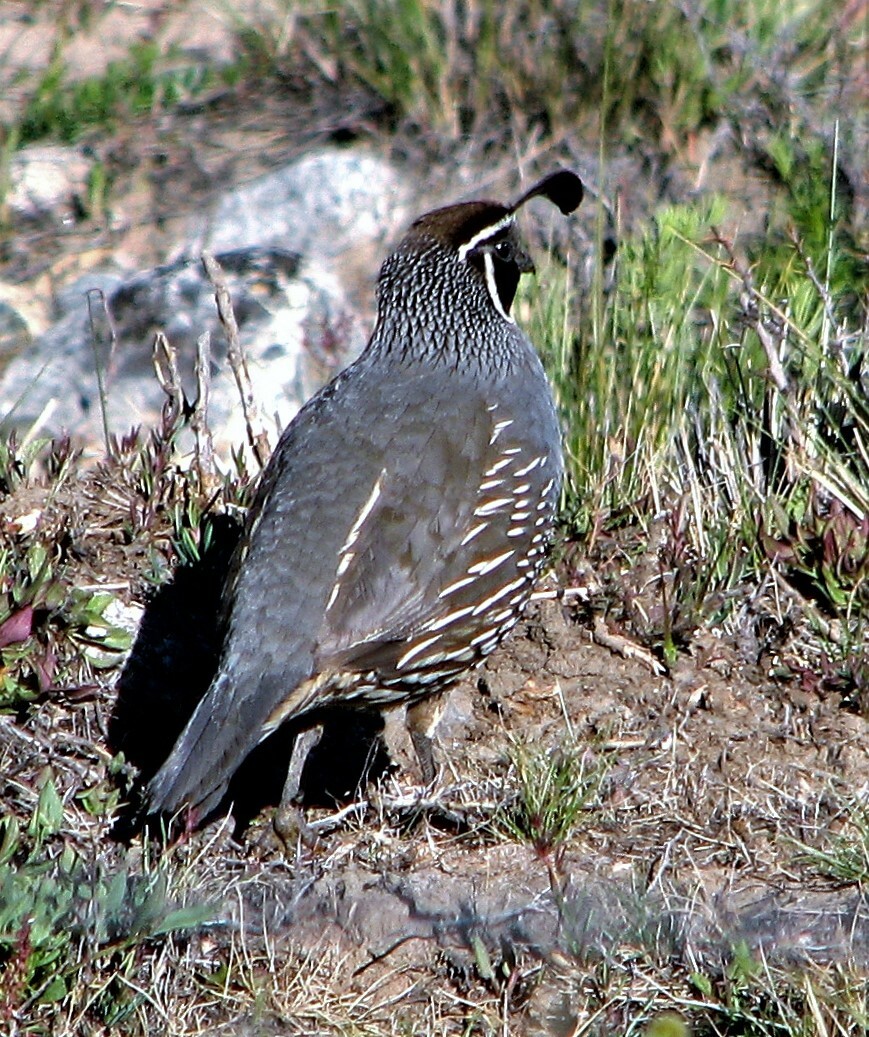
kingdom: Animalia
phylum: Chordata
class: Aves
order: Galliformes
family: Odontophoridae
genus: Callipepla
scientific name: Callipepla californica
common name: California quail
